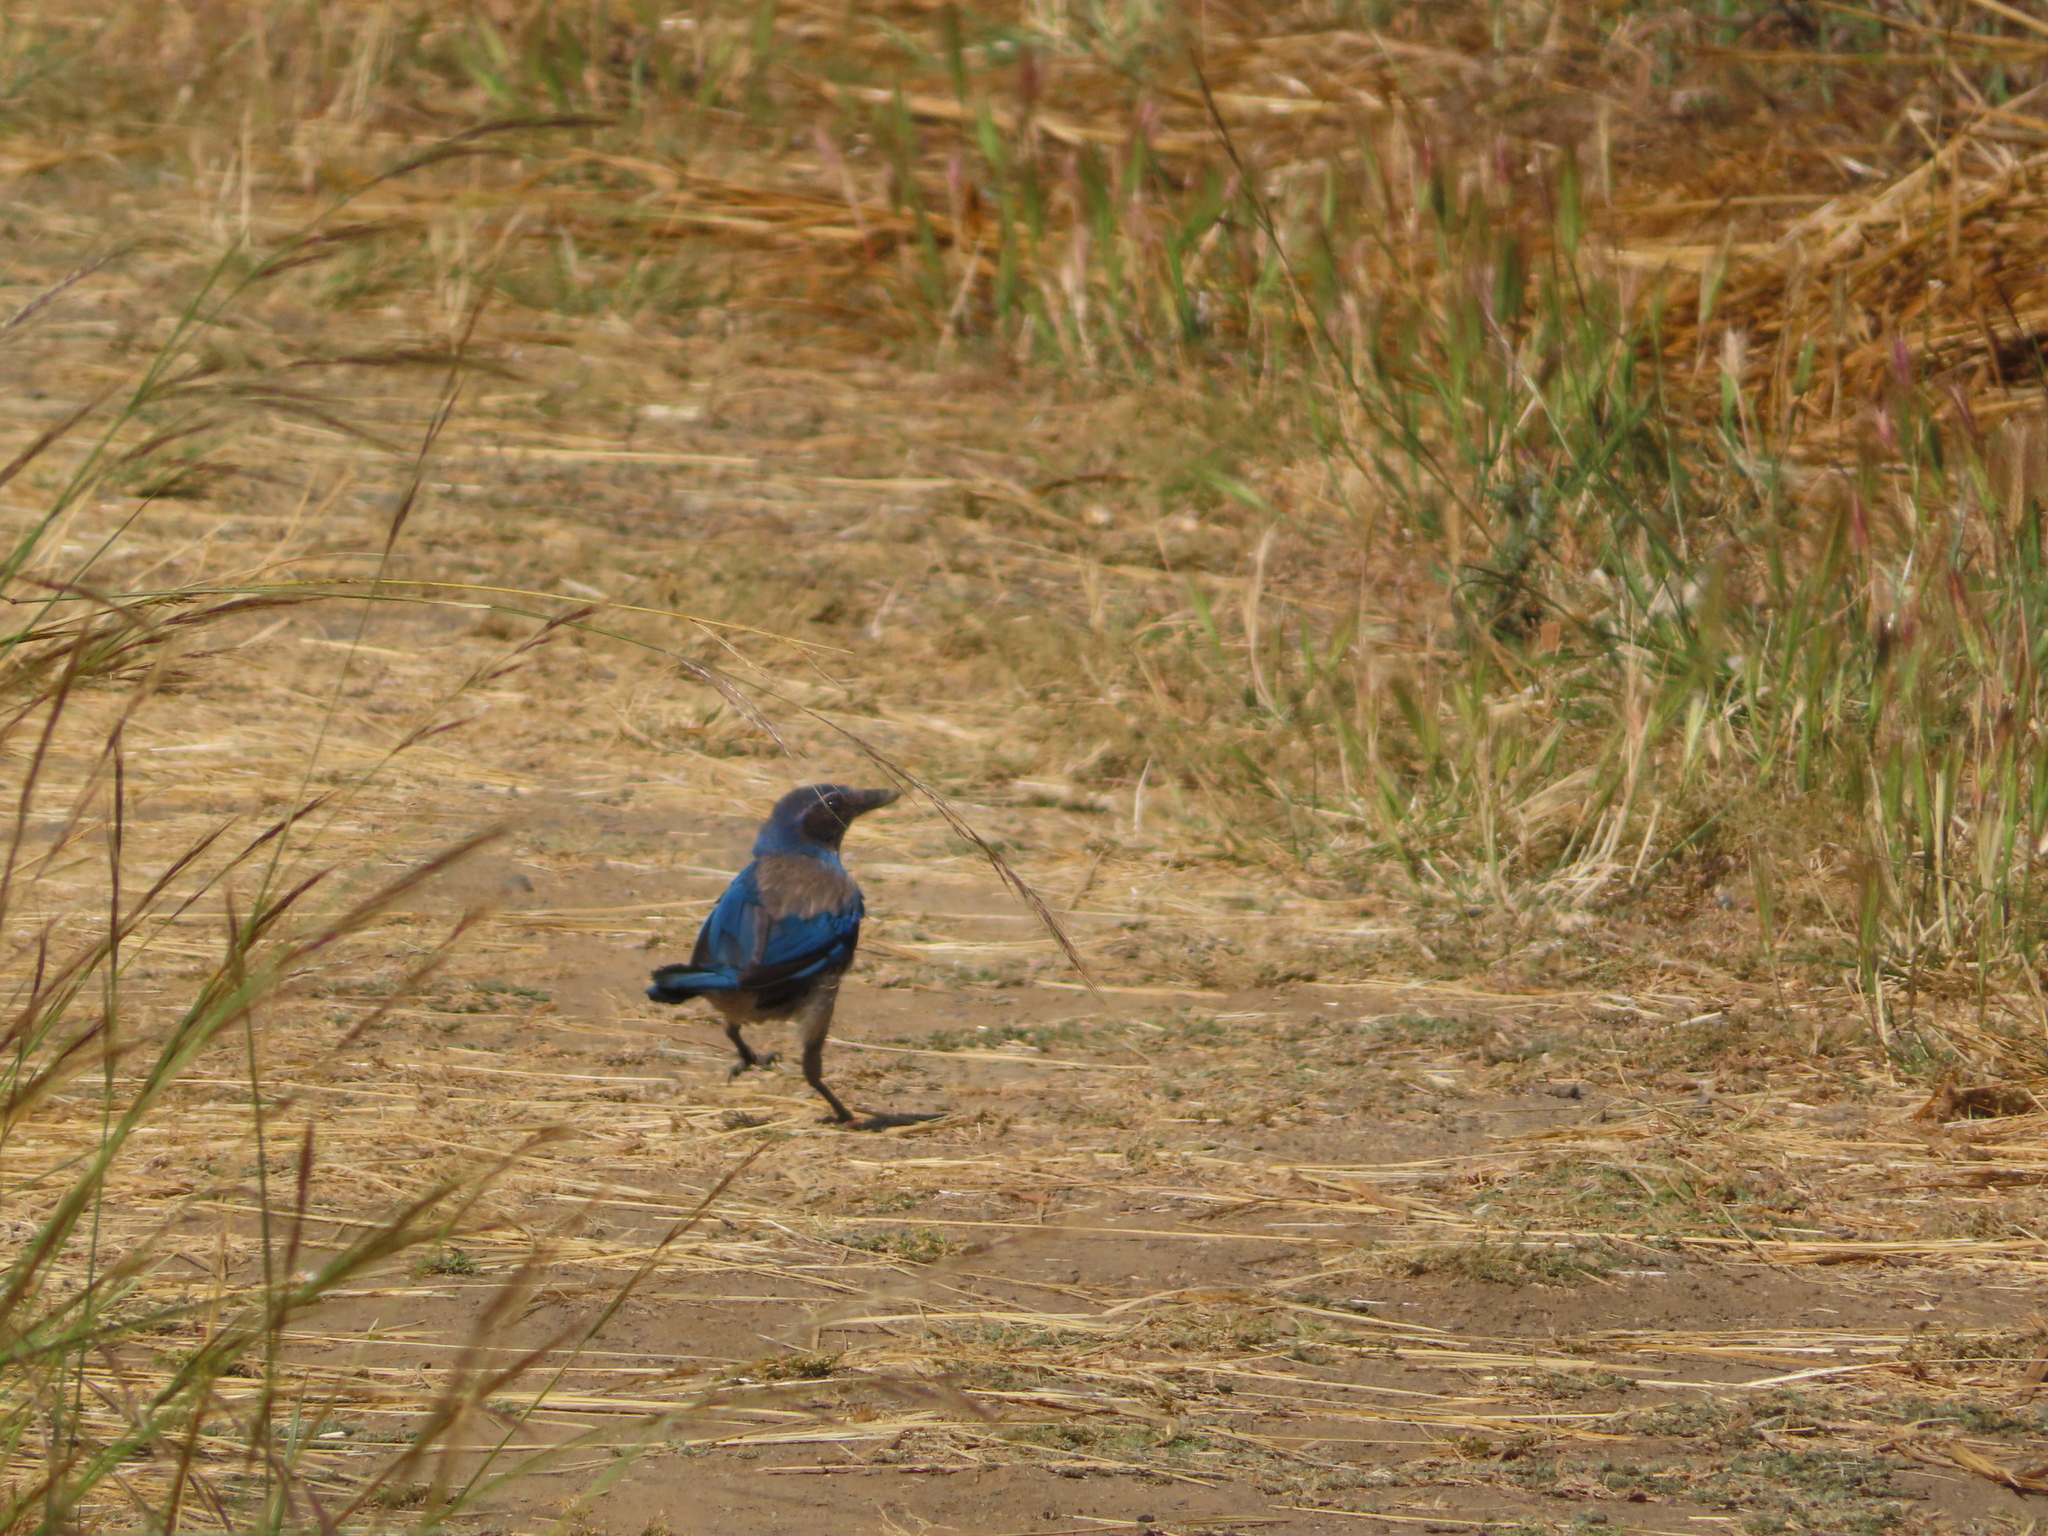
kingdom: Animalia
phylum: Chordata
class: Aves
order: Passeriformes
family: Corvidae
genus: Aphelocoma
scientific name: Aphelocoma californica
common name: California scrub-jay
